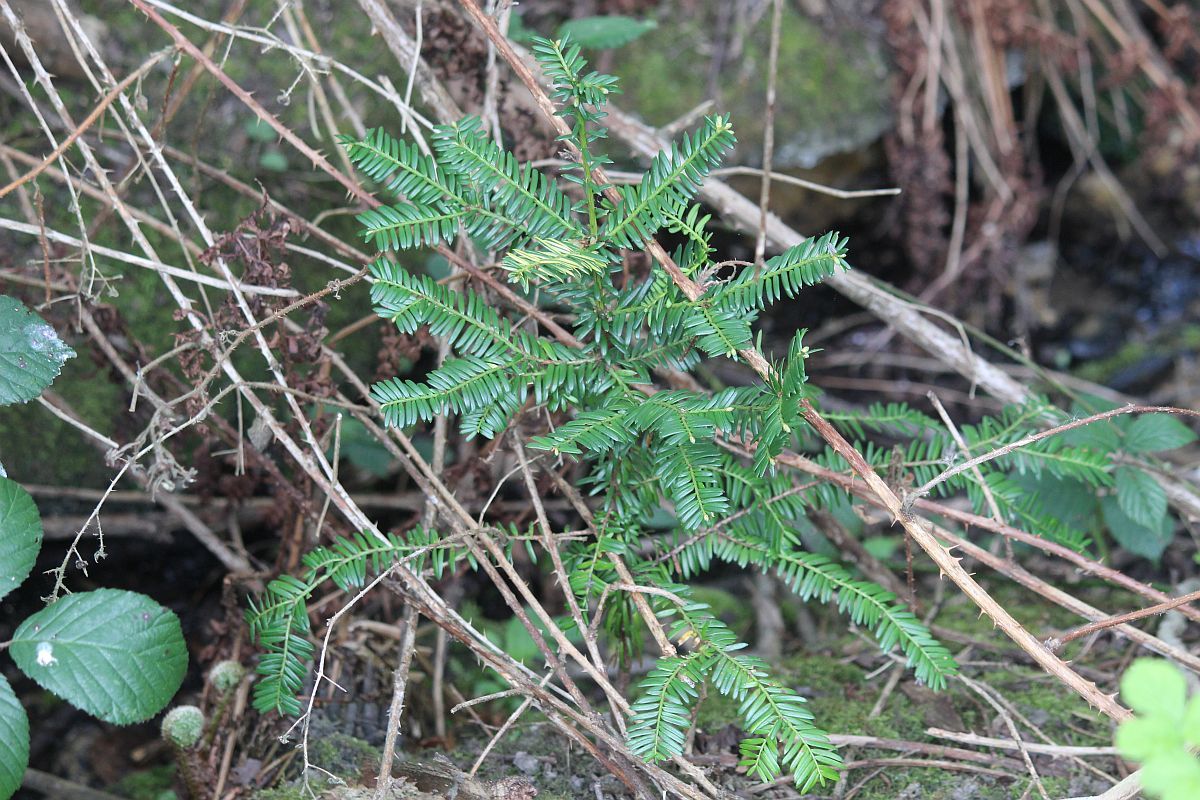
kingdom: Plantae
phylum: Tracheophyta
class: Pinopsida
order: Pinales
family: Taxaceae
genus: Taxus
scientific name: Taxus baccata
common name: Yew
